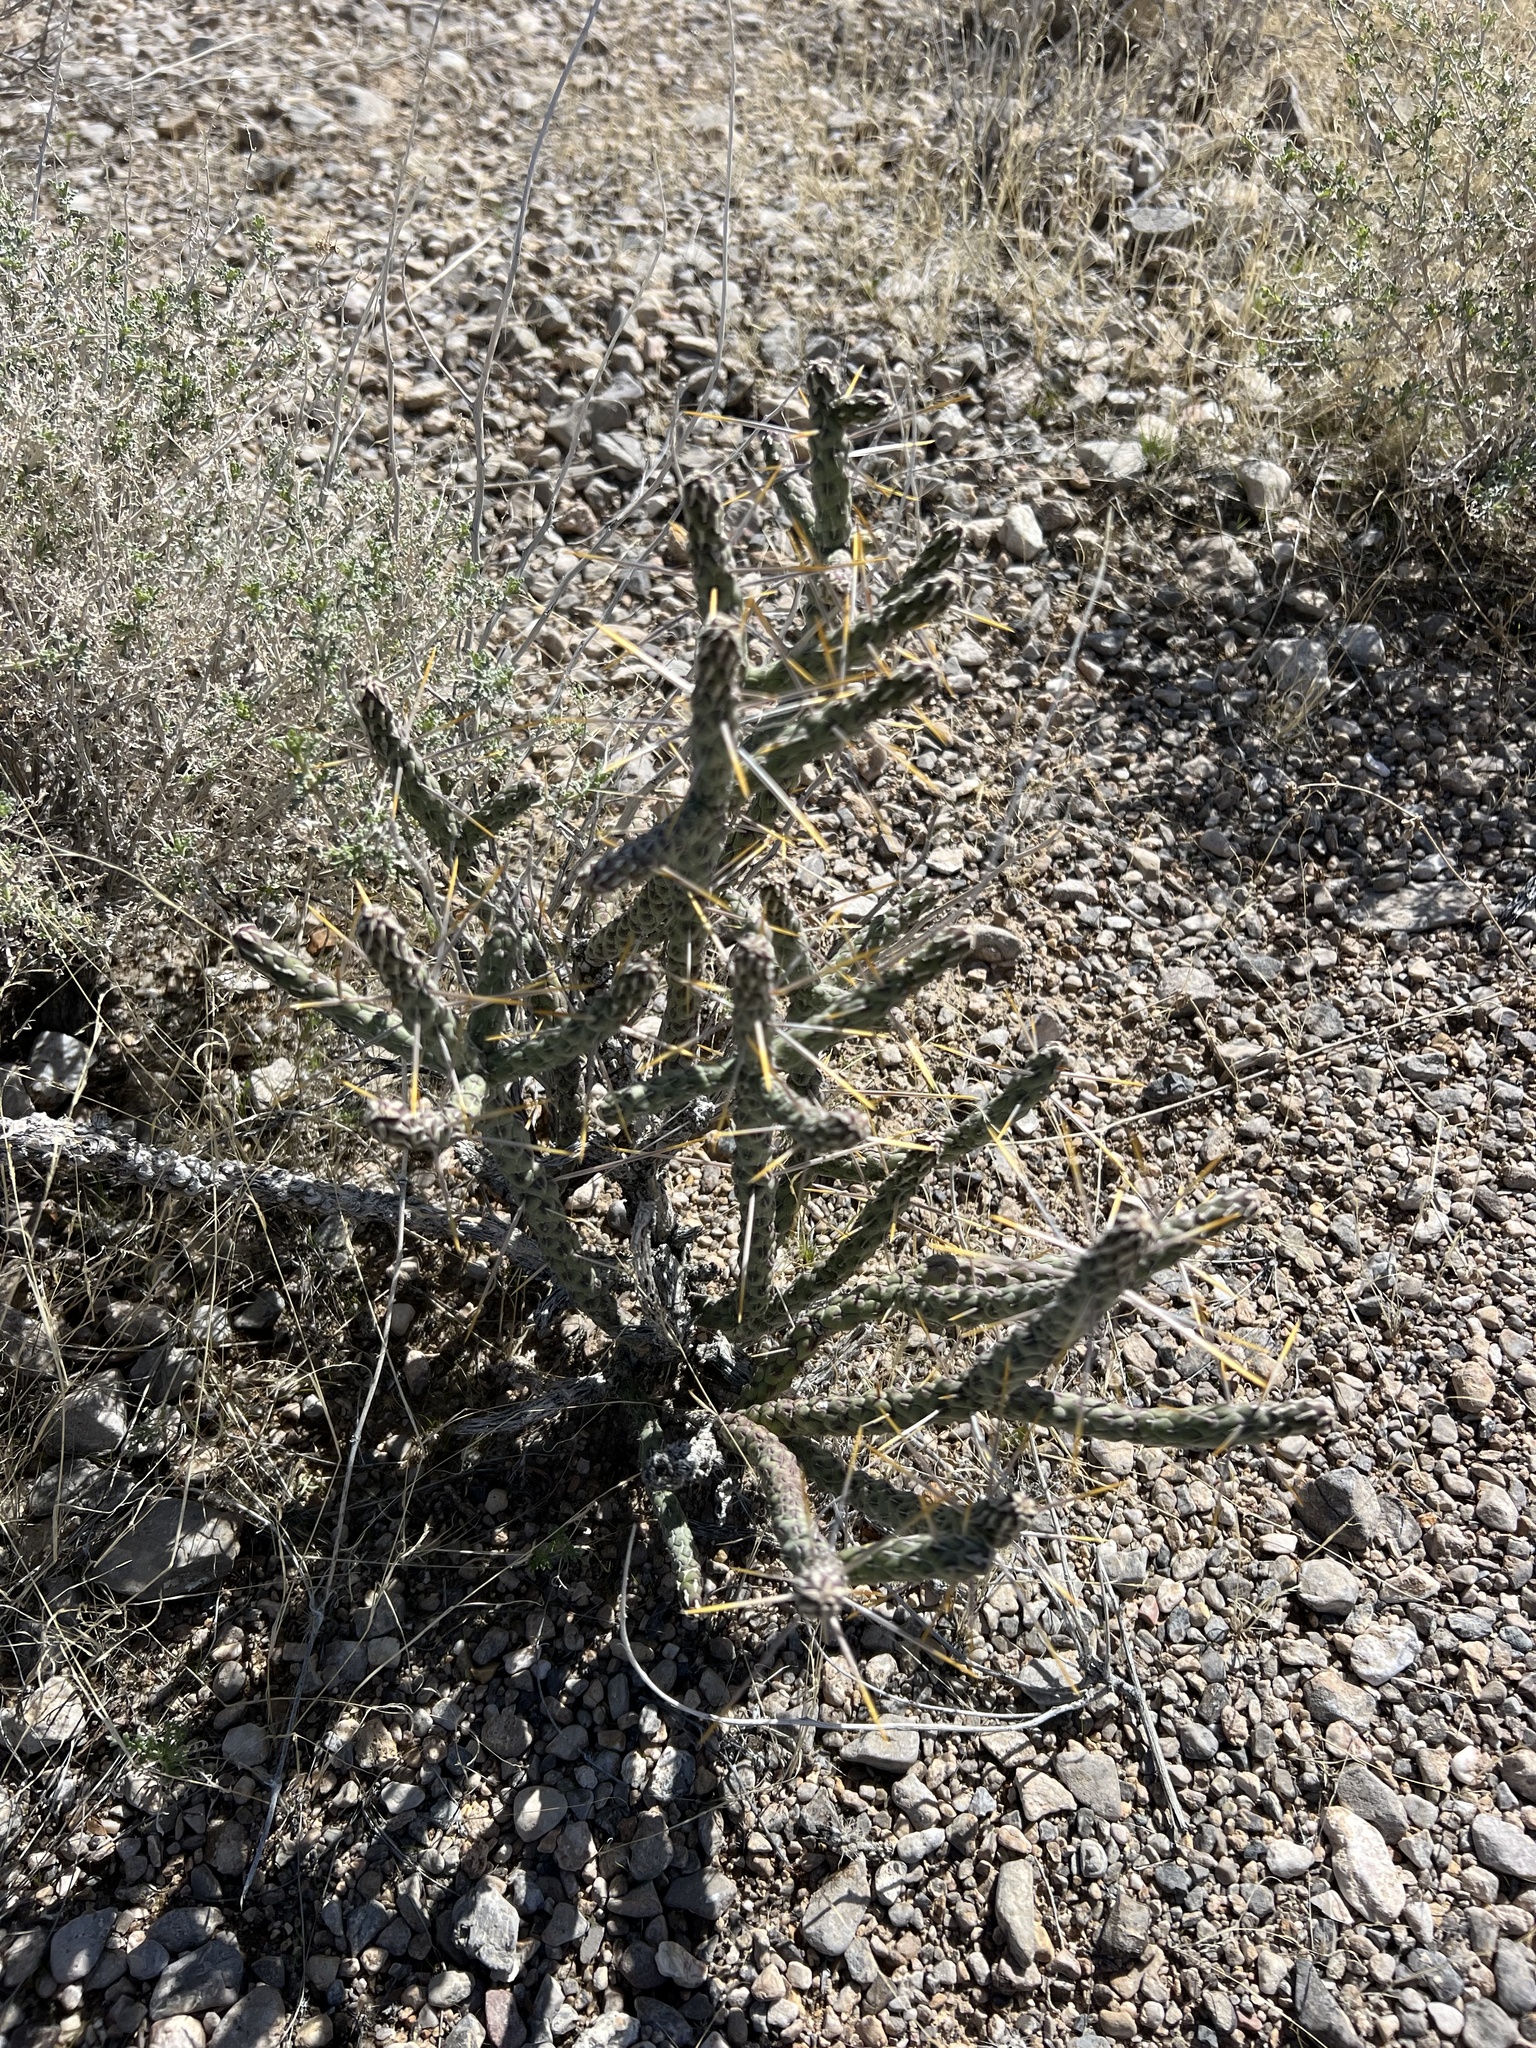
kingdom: Plantae
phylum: Tracheophyta
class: Magnoliopsida
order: Caryophyllales
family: Cactaceae
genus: Cylindropuntia
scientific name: Cylindropuntia ramosissima
